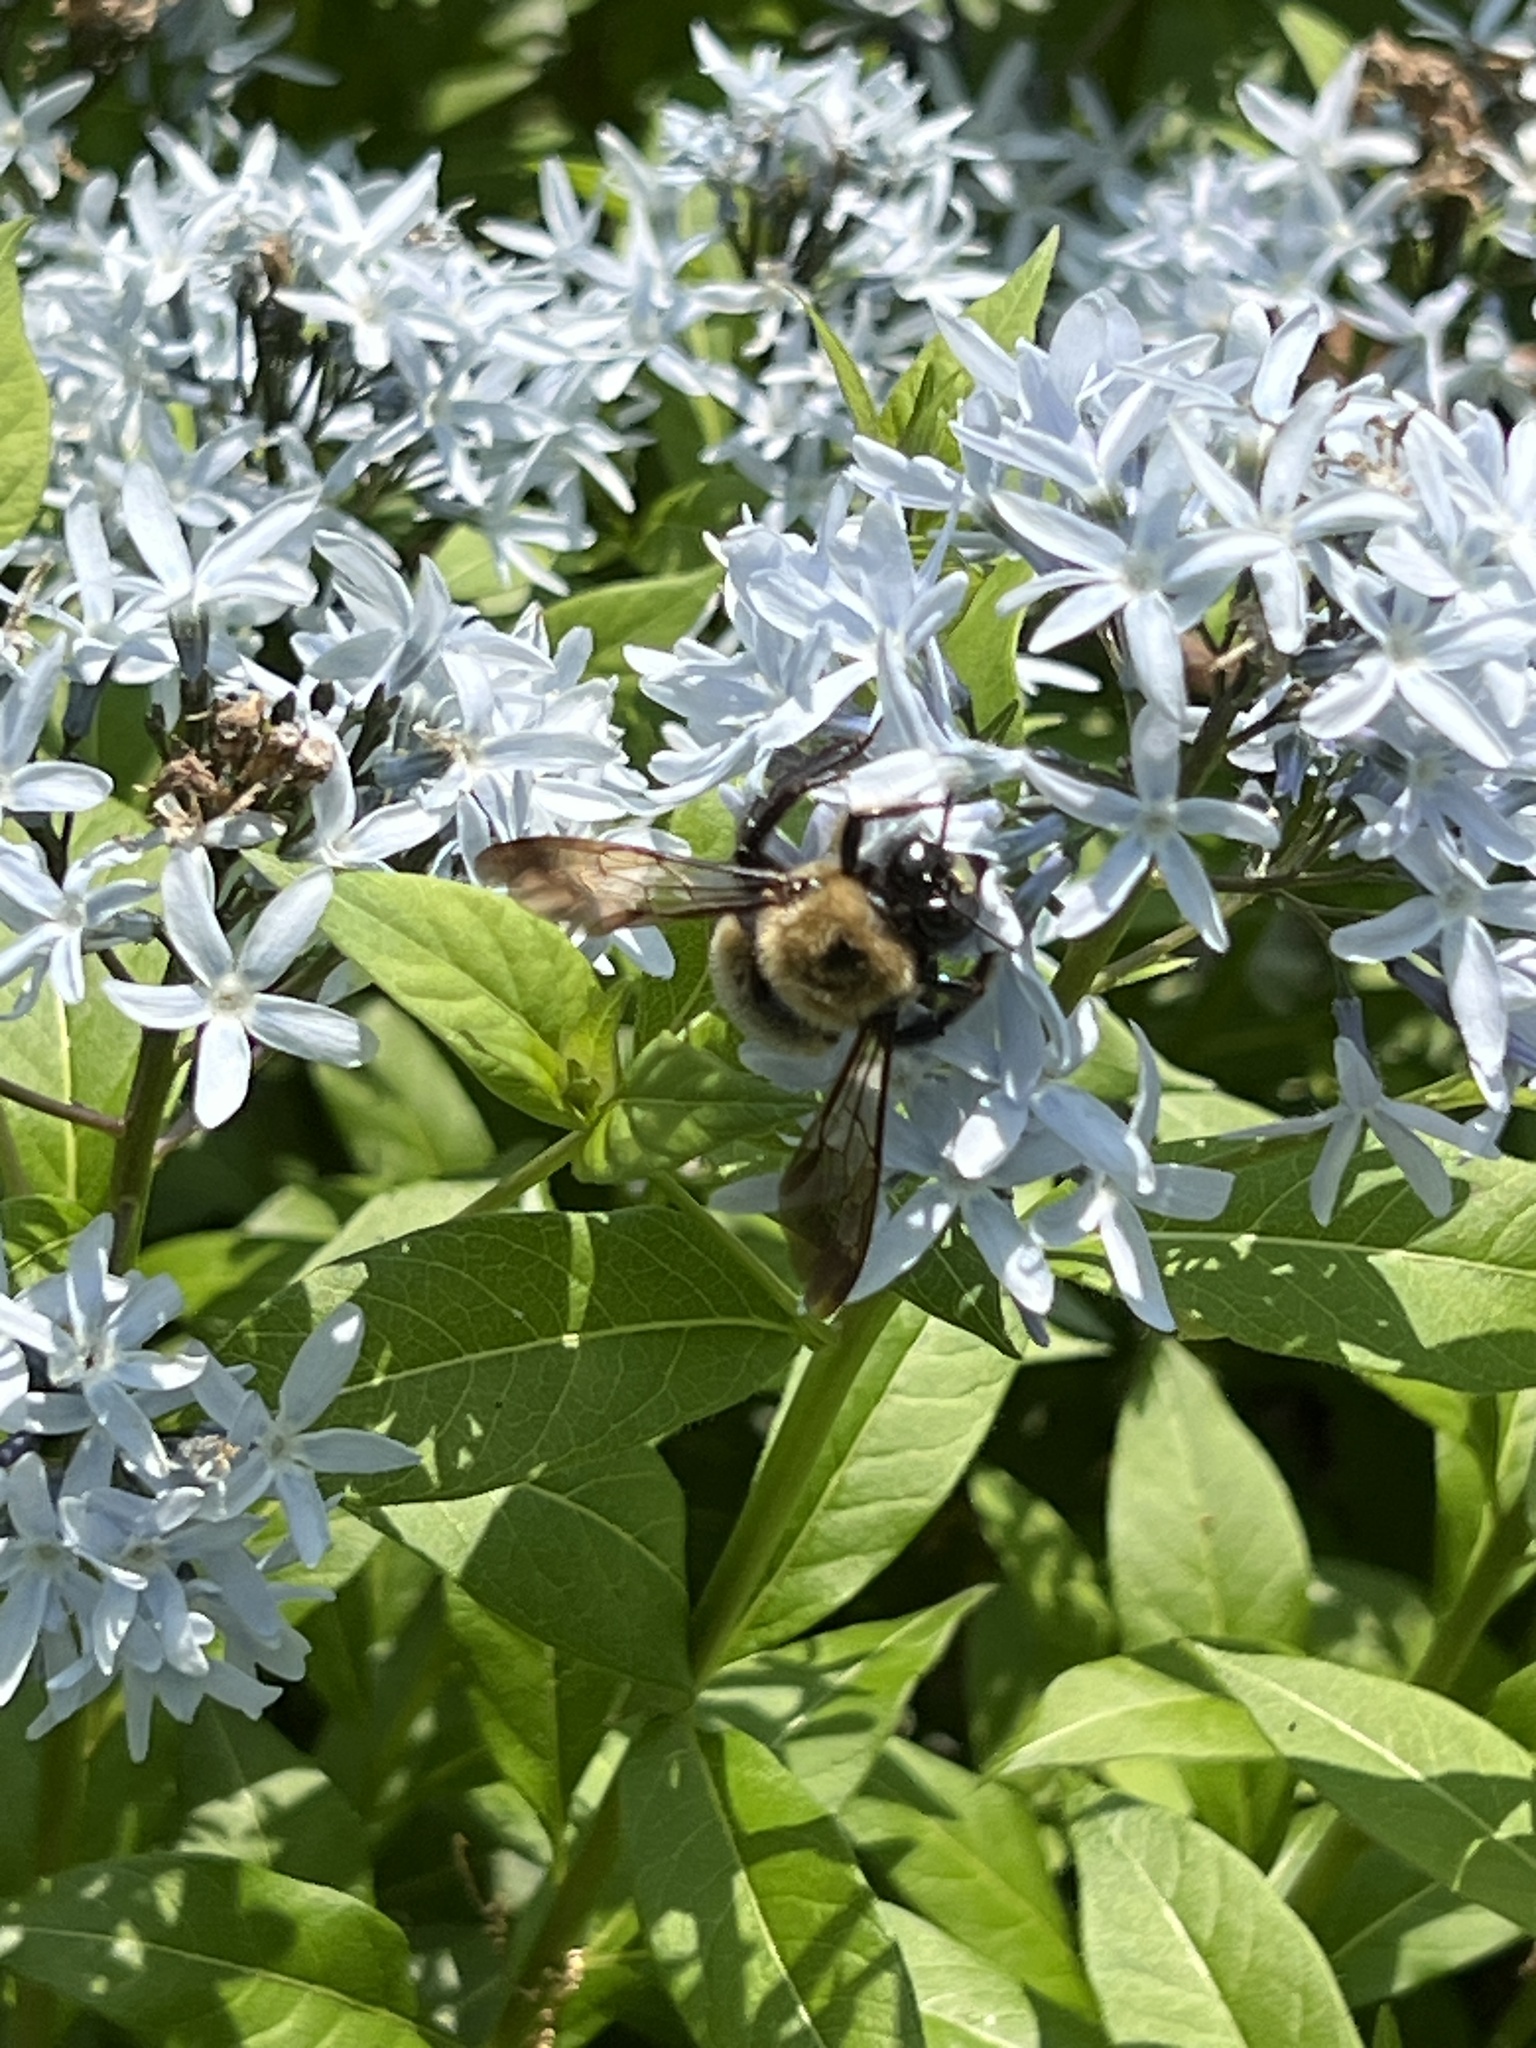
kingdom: Animalia
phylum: Arthropoda
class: Insecta
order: Hymenoptera
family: Apidae
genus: Xylocopa
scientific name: Xylocopa virginica
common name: Carpenter bee
